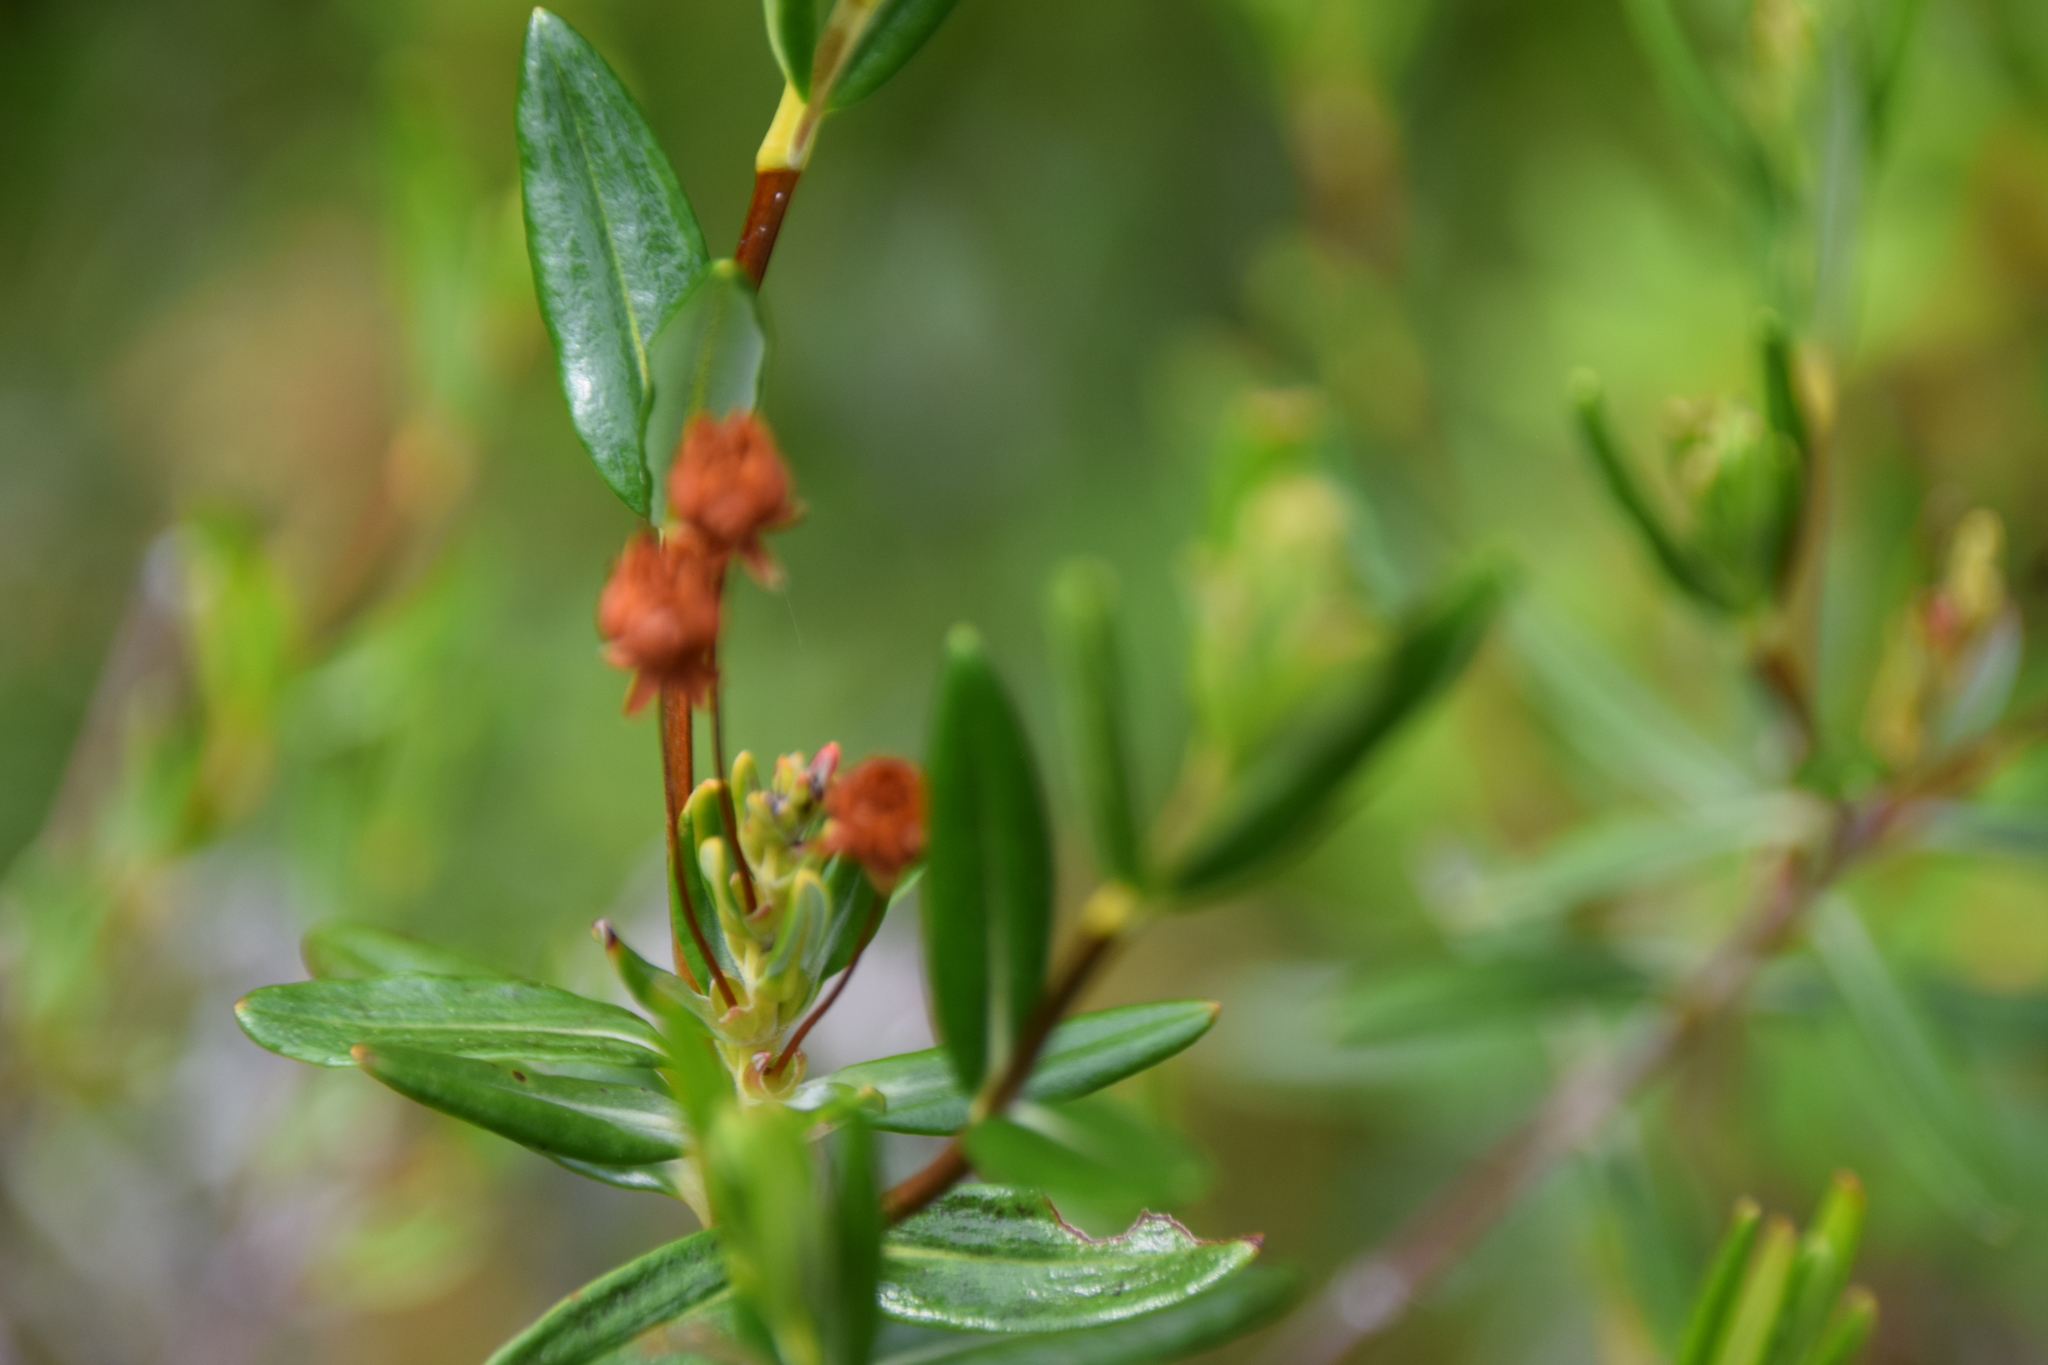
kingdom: Plantae
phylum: Tracheophyta
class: Magnoliopsida
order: Ericales
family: Ericaceae
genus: Kalmia
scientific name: Kalmia polifolia
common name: Bog-laurel
